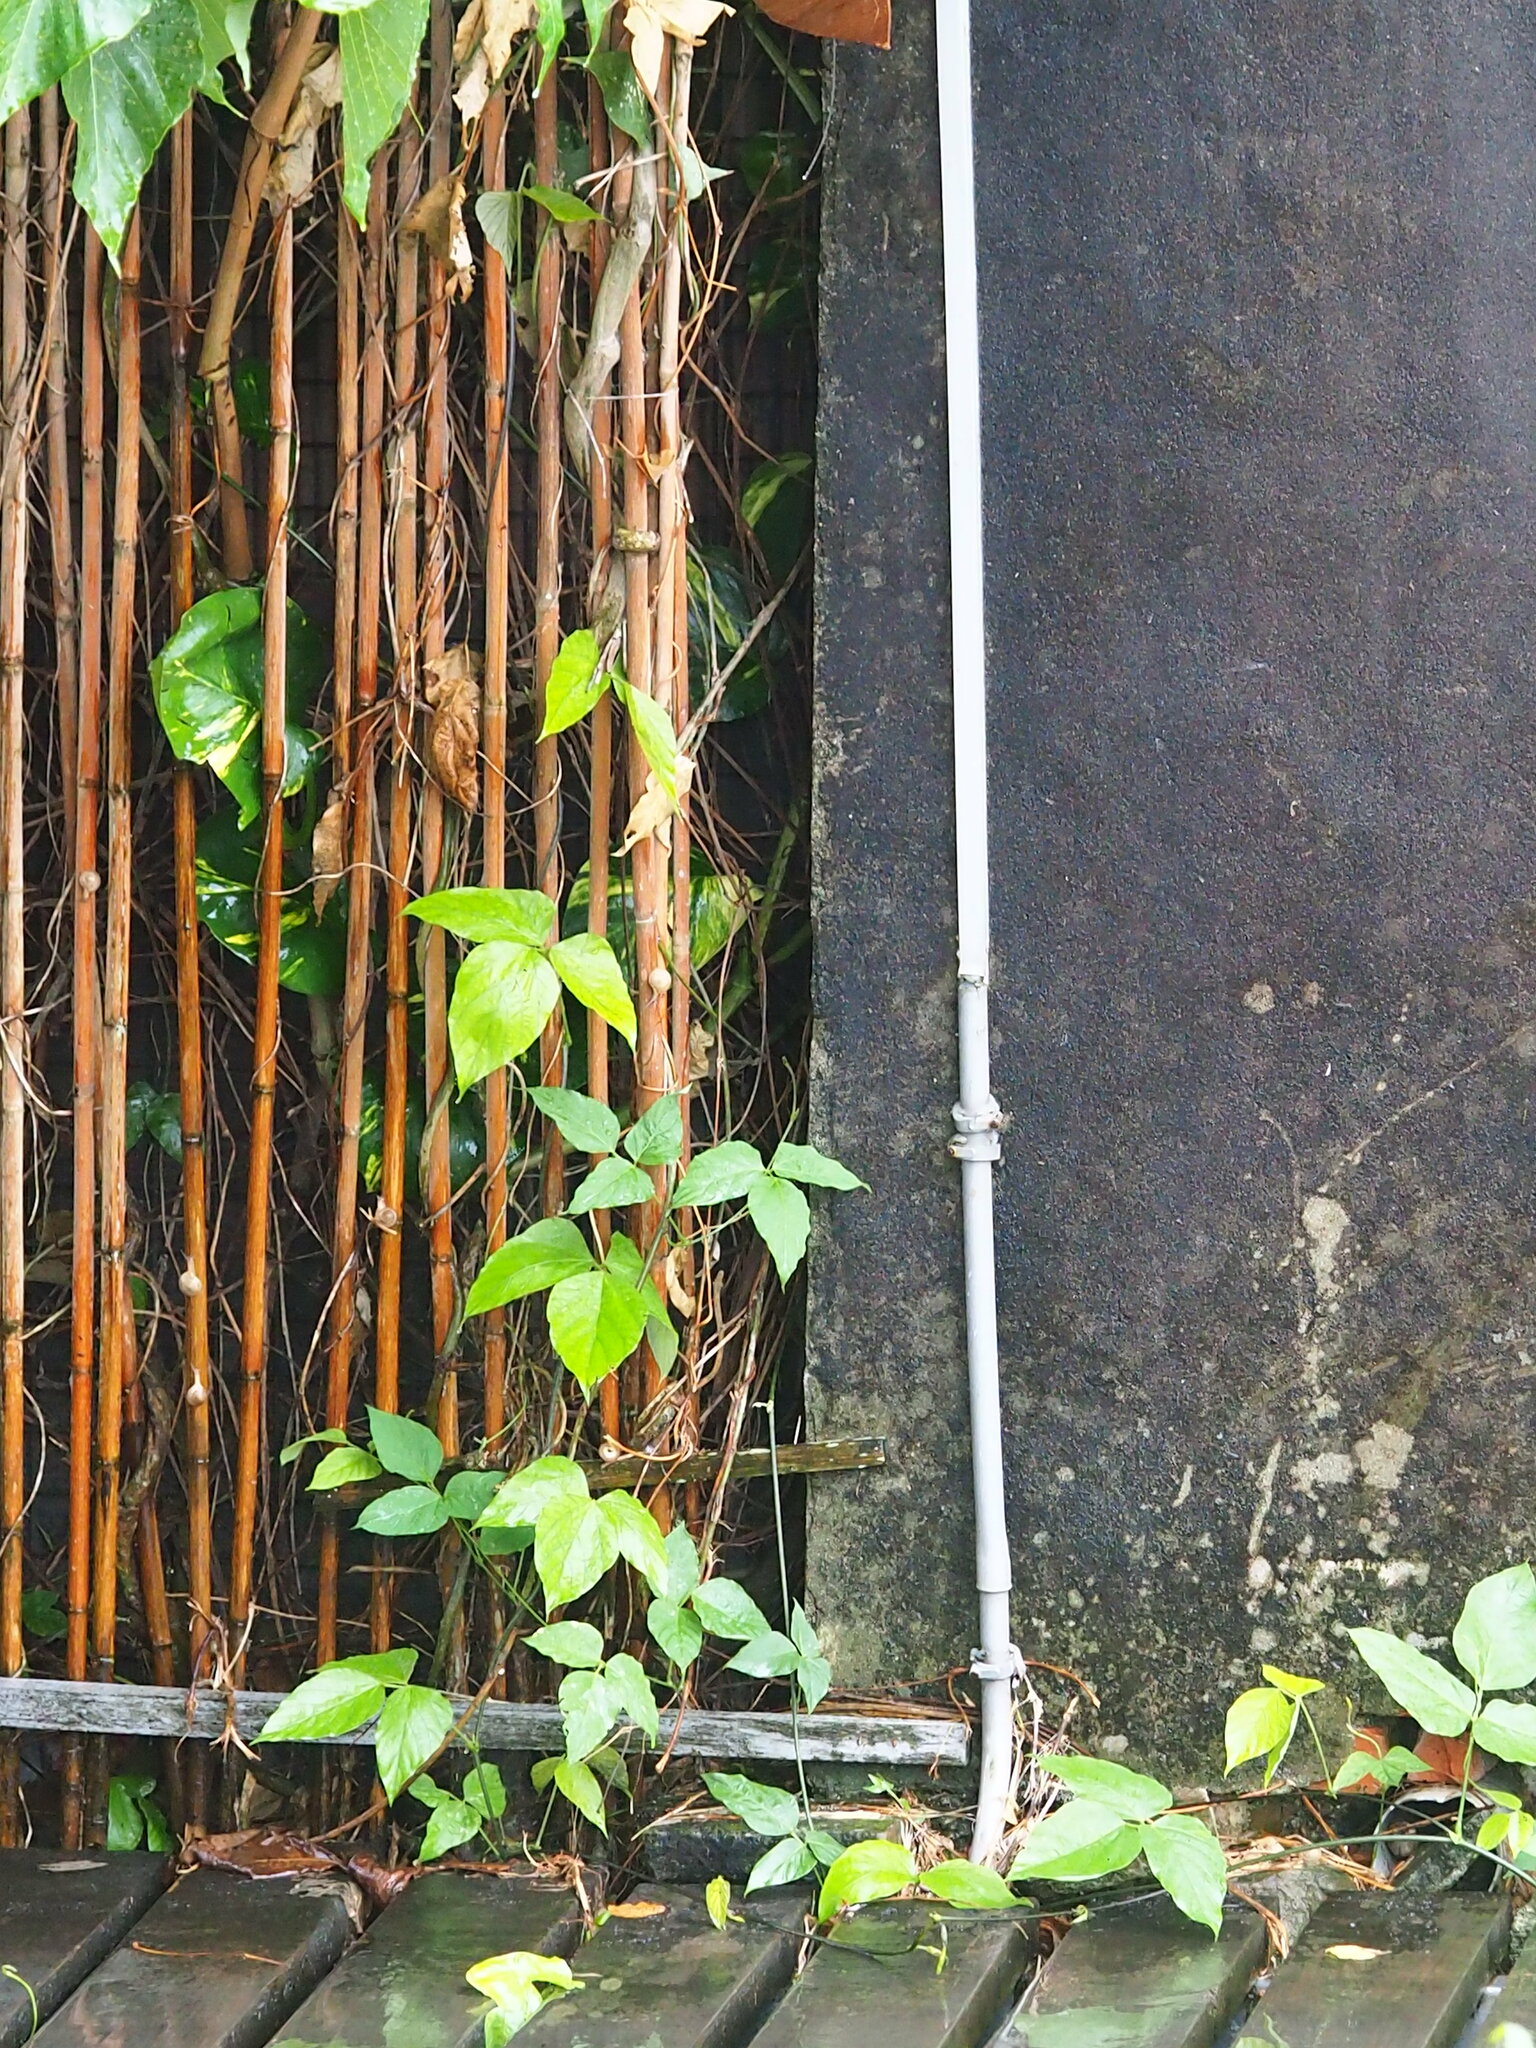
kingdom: Plantae
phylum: Tracheophyta
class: Magnoliopsida
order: Fabales
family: Fabaceae
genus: Pueraria
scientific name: Pueraria montana
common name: Kudzu
